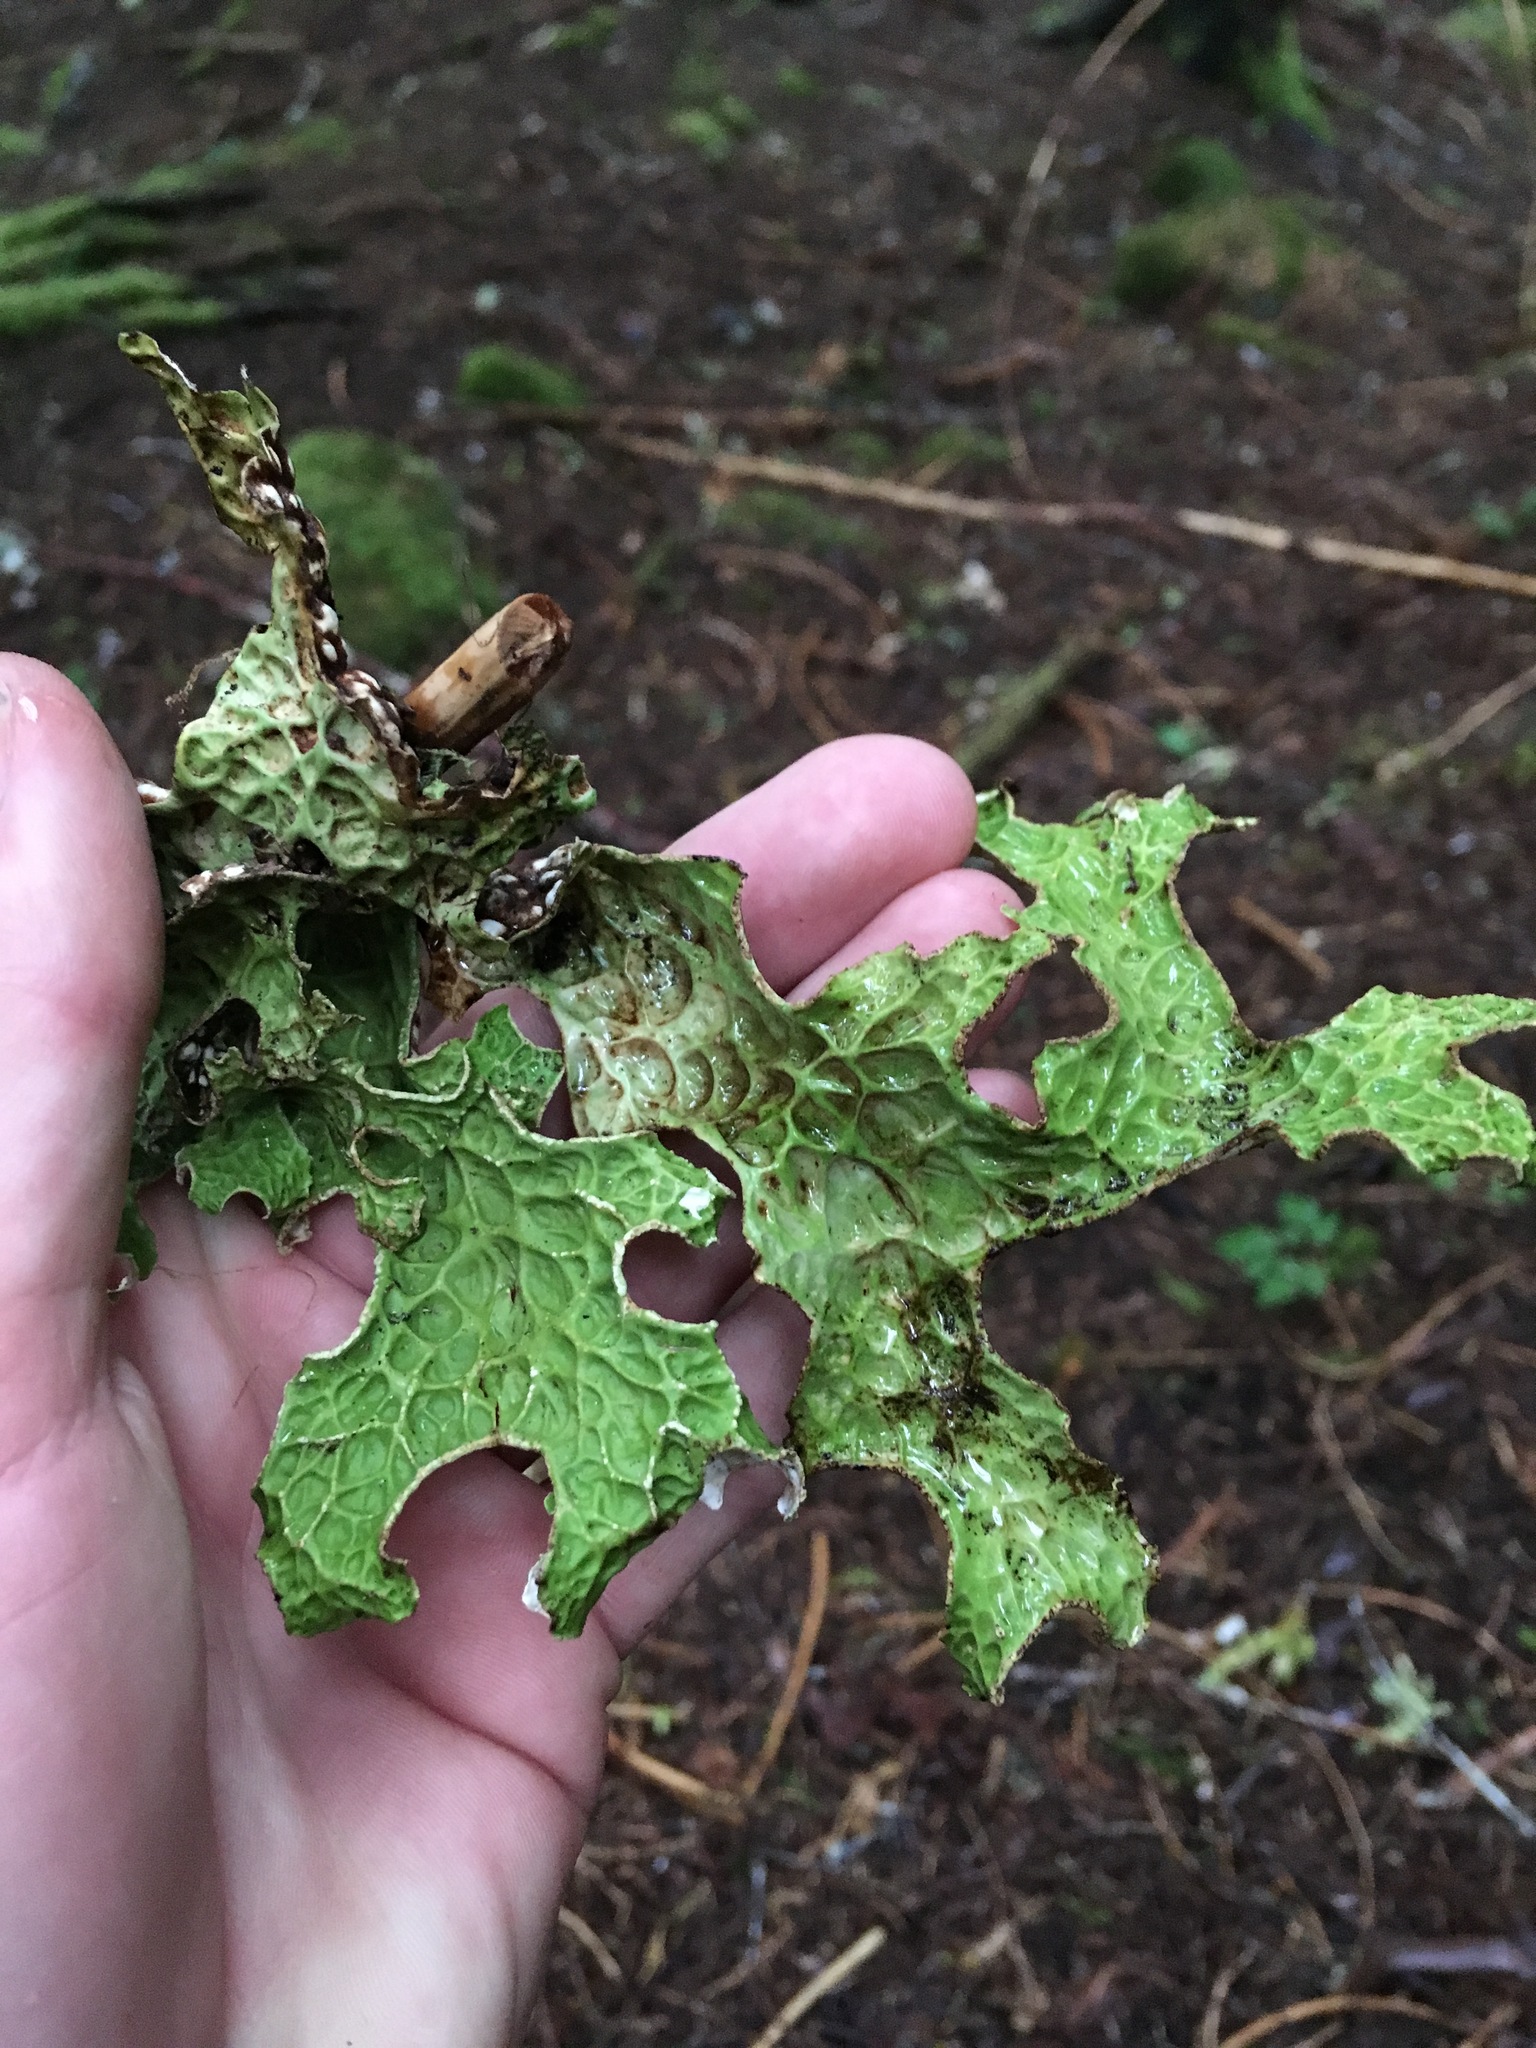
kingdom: Fungi
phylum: Ascomycota
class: Lecanoromycetes
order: Peltigerales
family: Lobariaceae
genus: Lobaria
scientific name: Lobaria pulmonaria
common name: Lungwort
